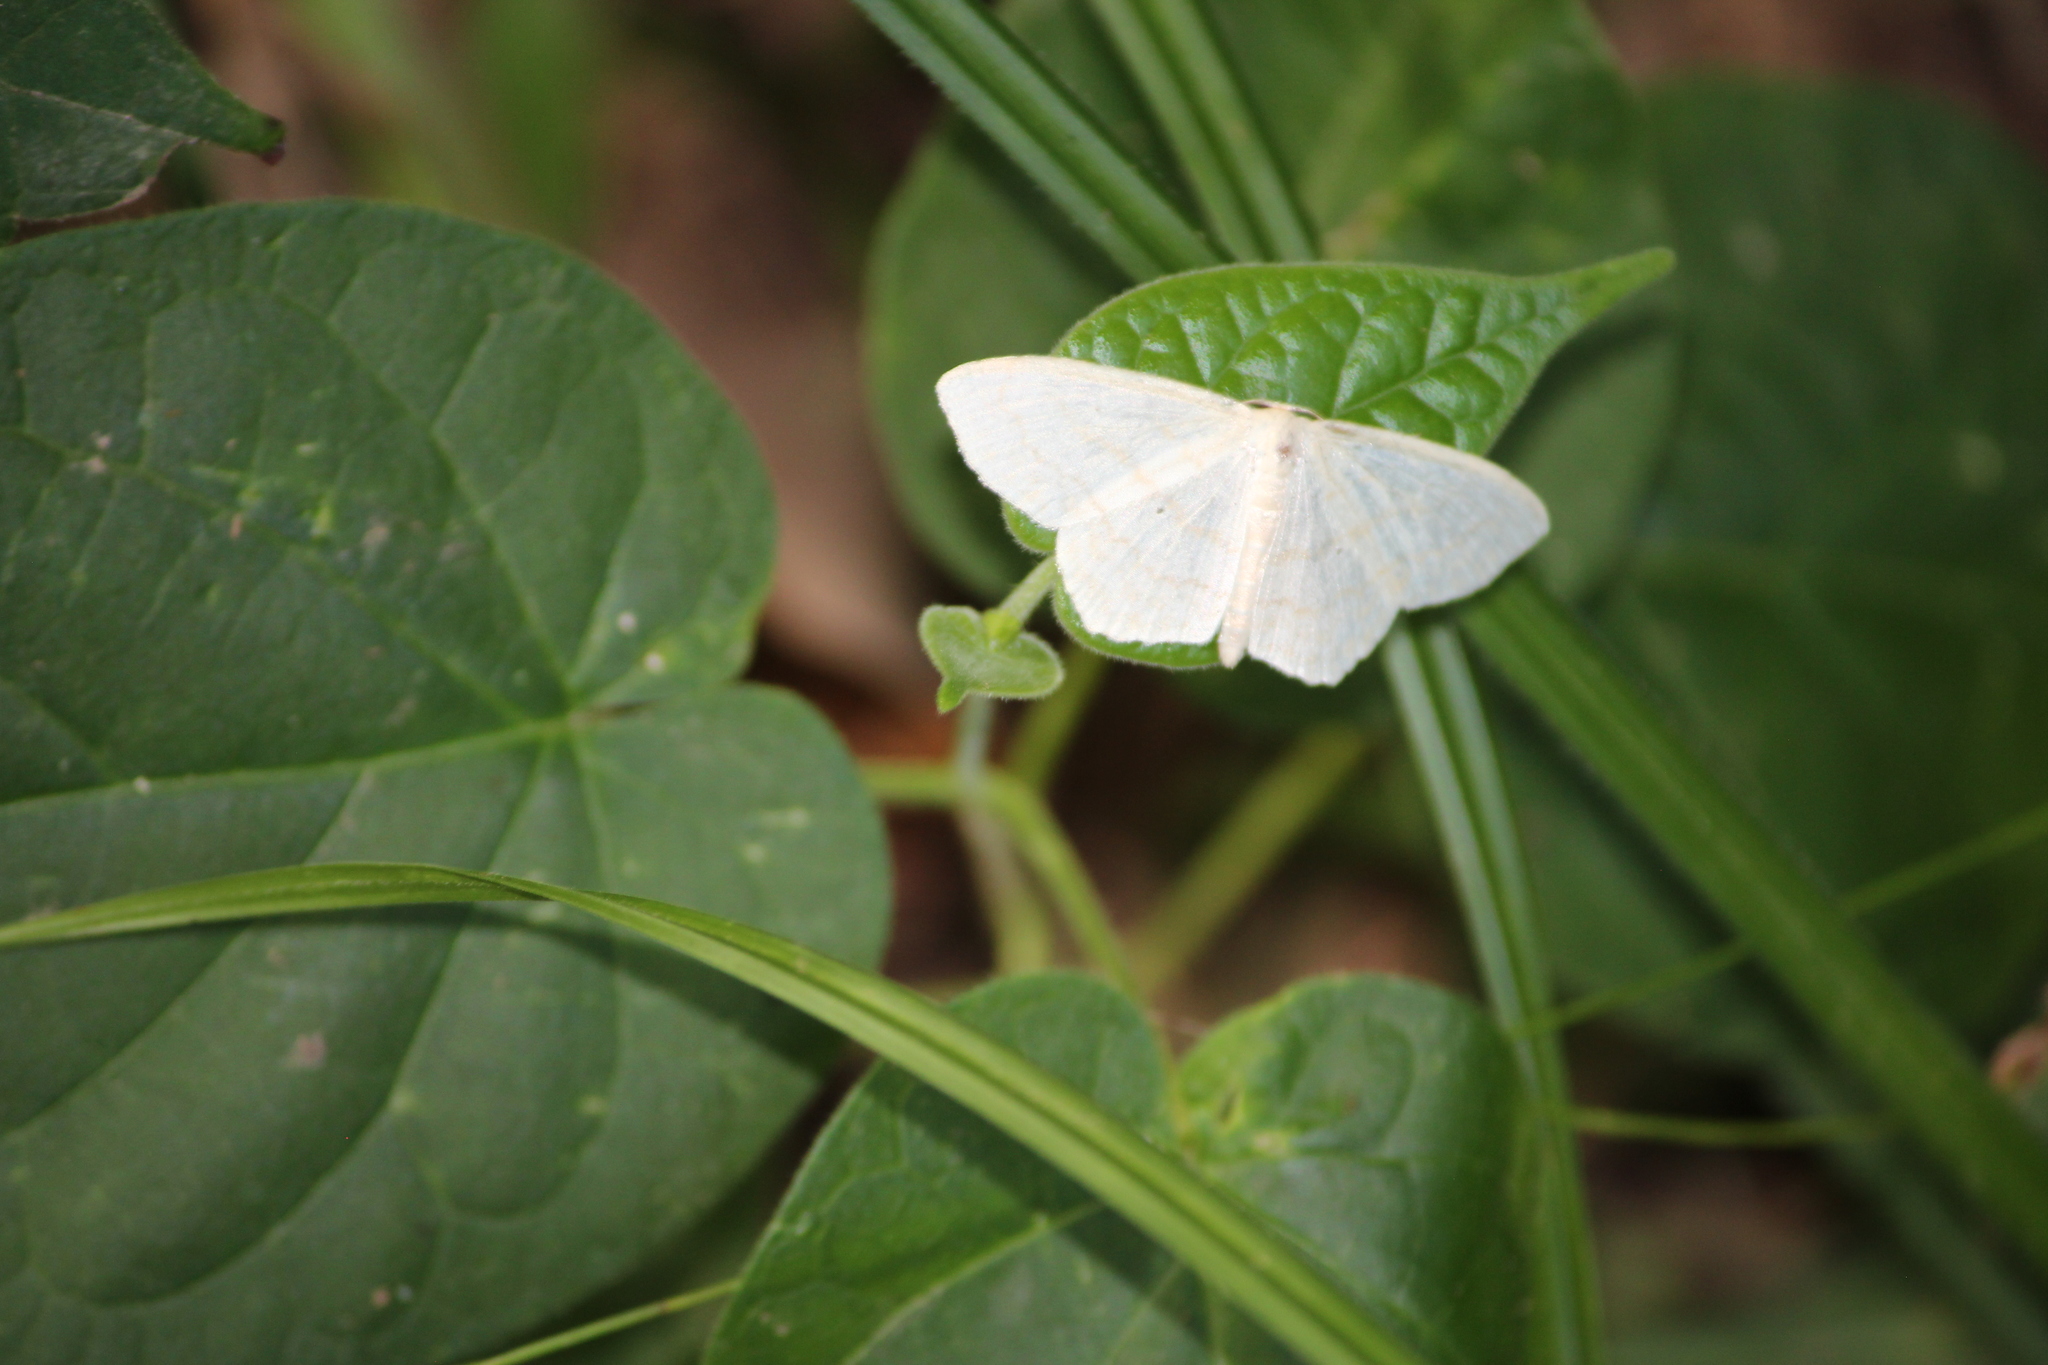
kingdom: Animalia
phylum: Arthropoda
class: Insecta
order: Lepidoptera
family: Geometridae
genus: Scopula
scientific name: Scopula limboundata
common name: Large lace border
